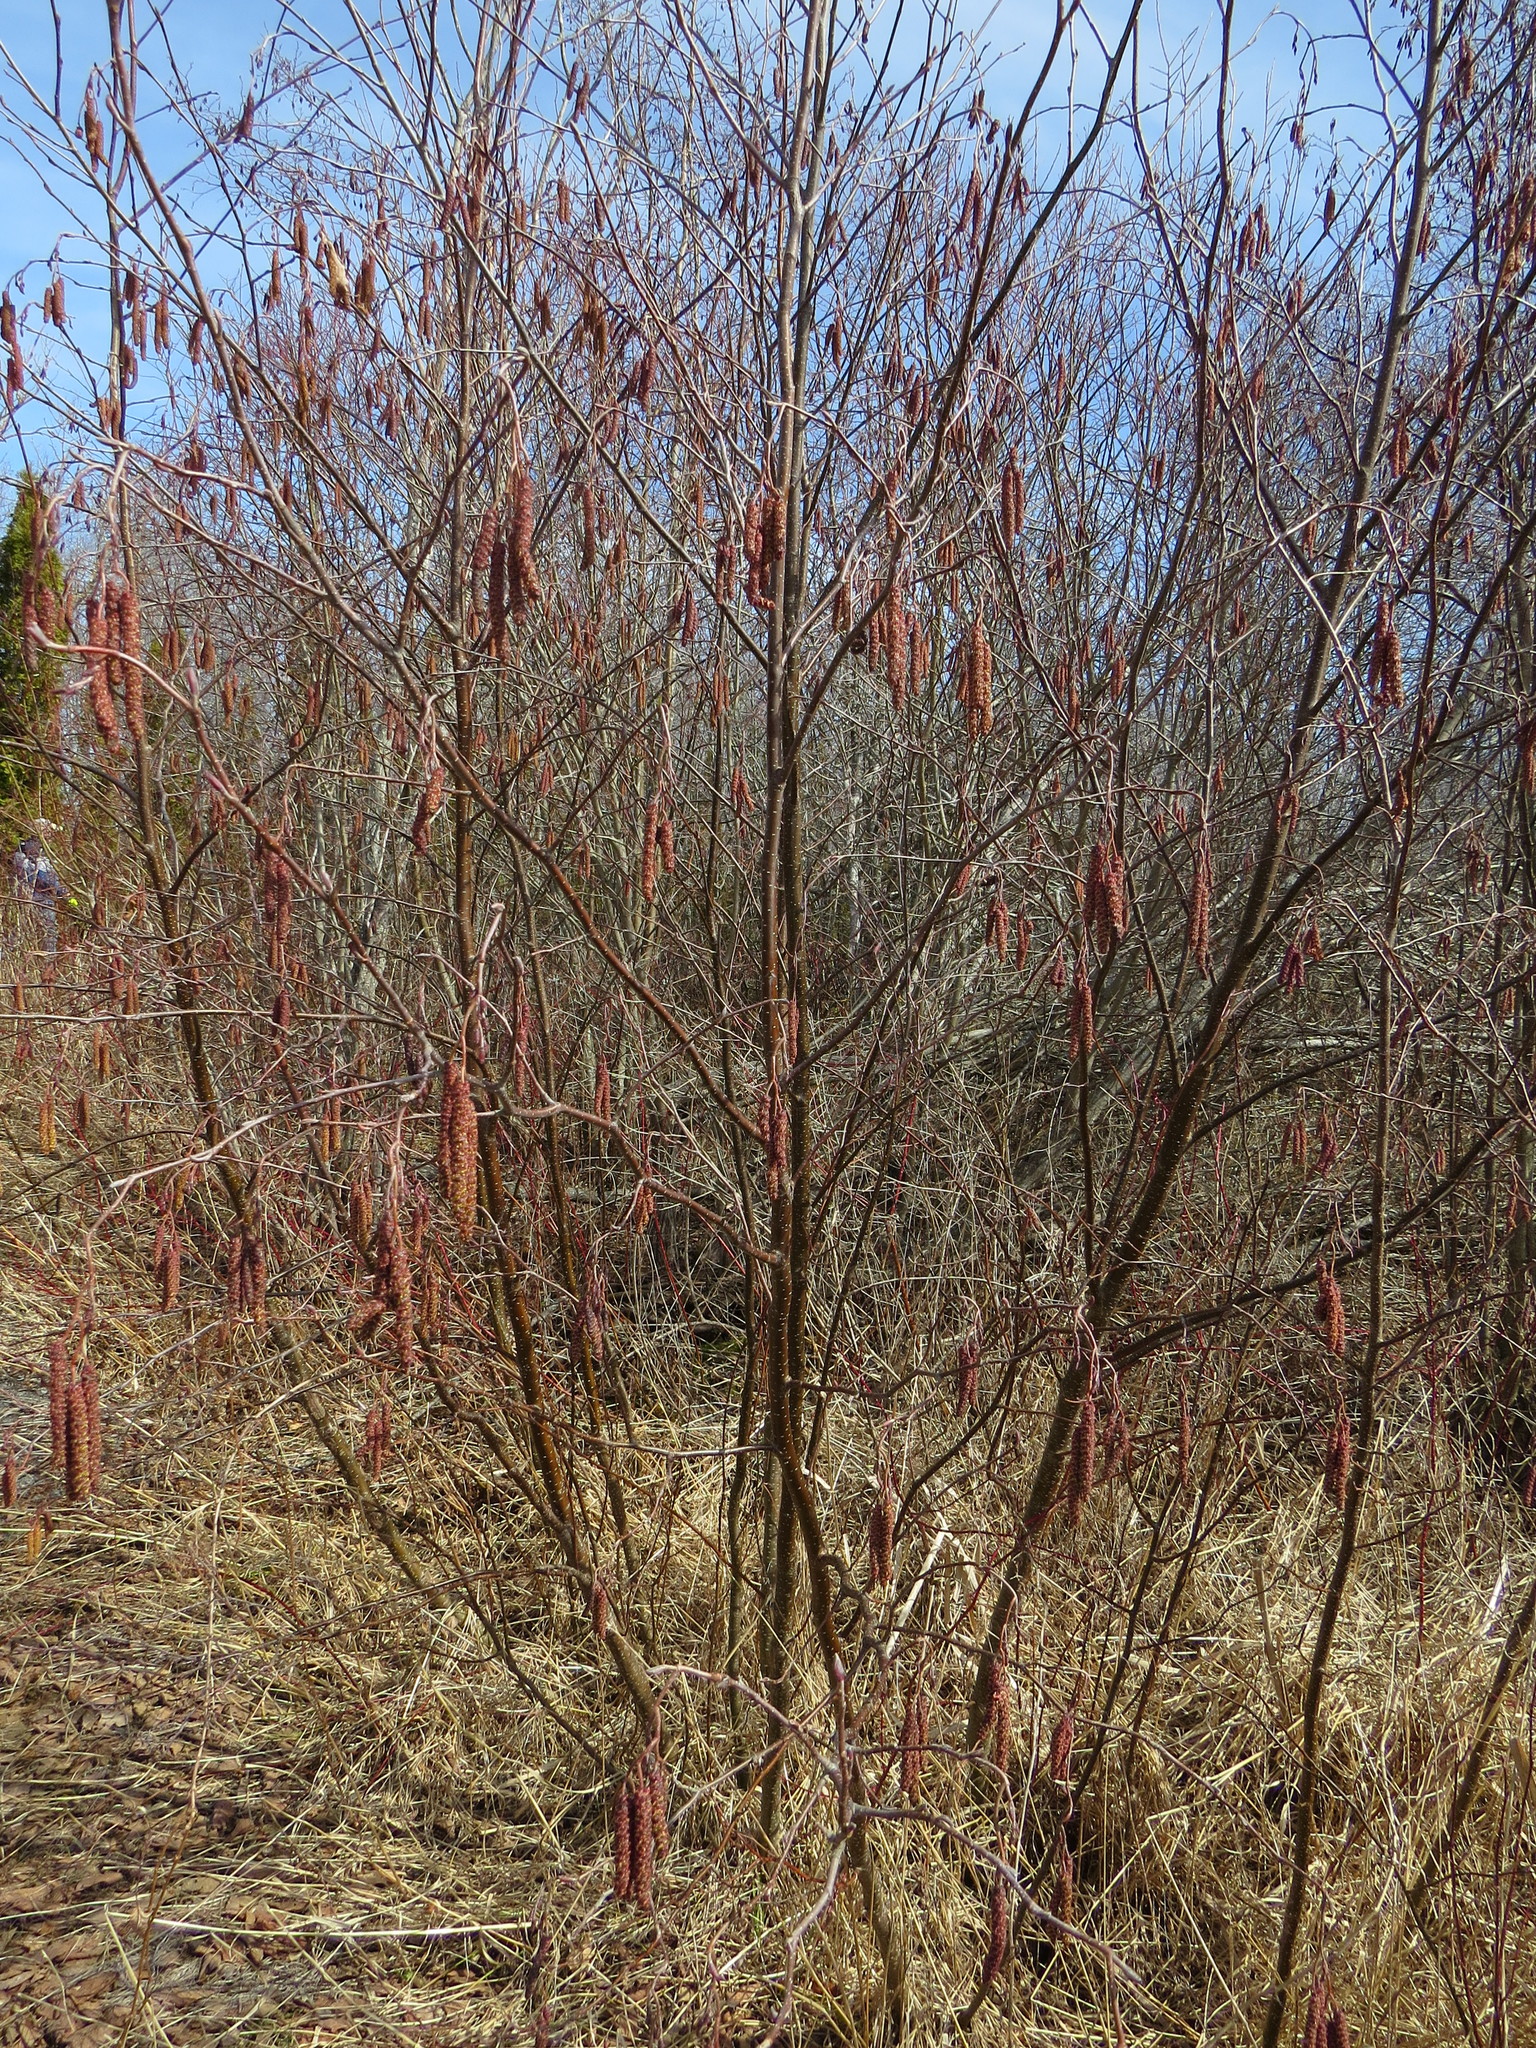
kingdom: Plantae
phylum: Tracheophyta
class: Magnoliopsida
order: Fagales
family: Betulaceae
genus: Alnus
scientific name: Alnus incana
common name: Grey alder
